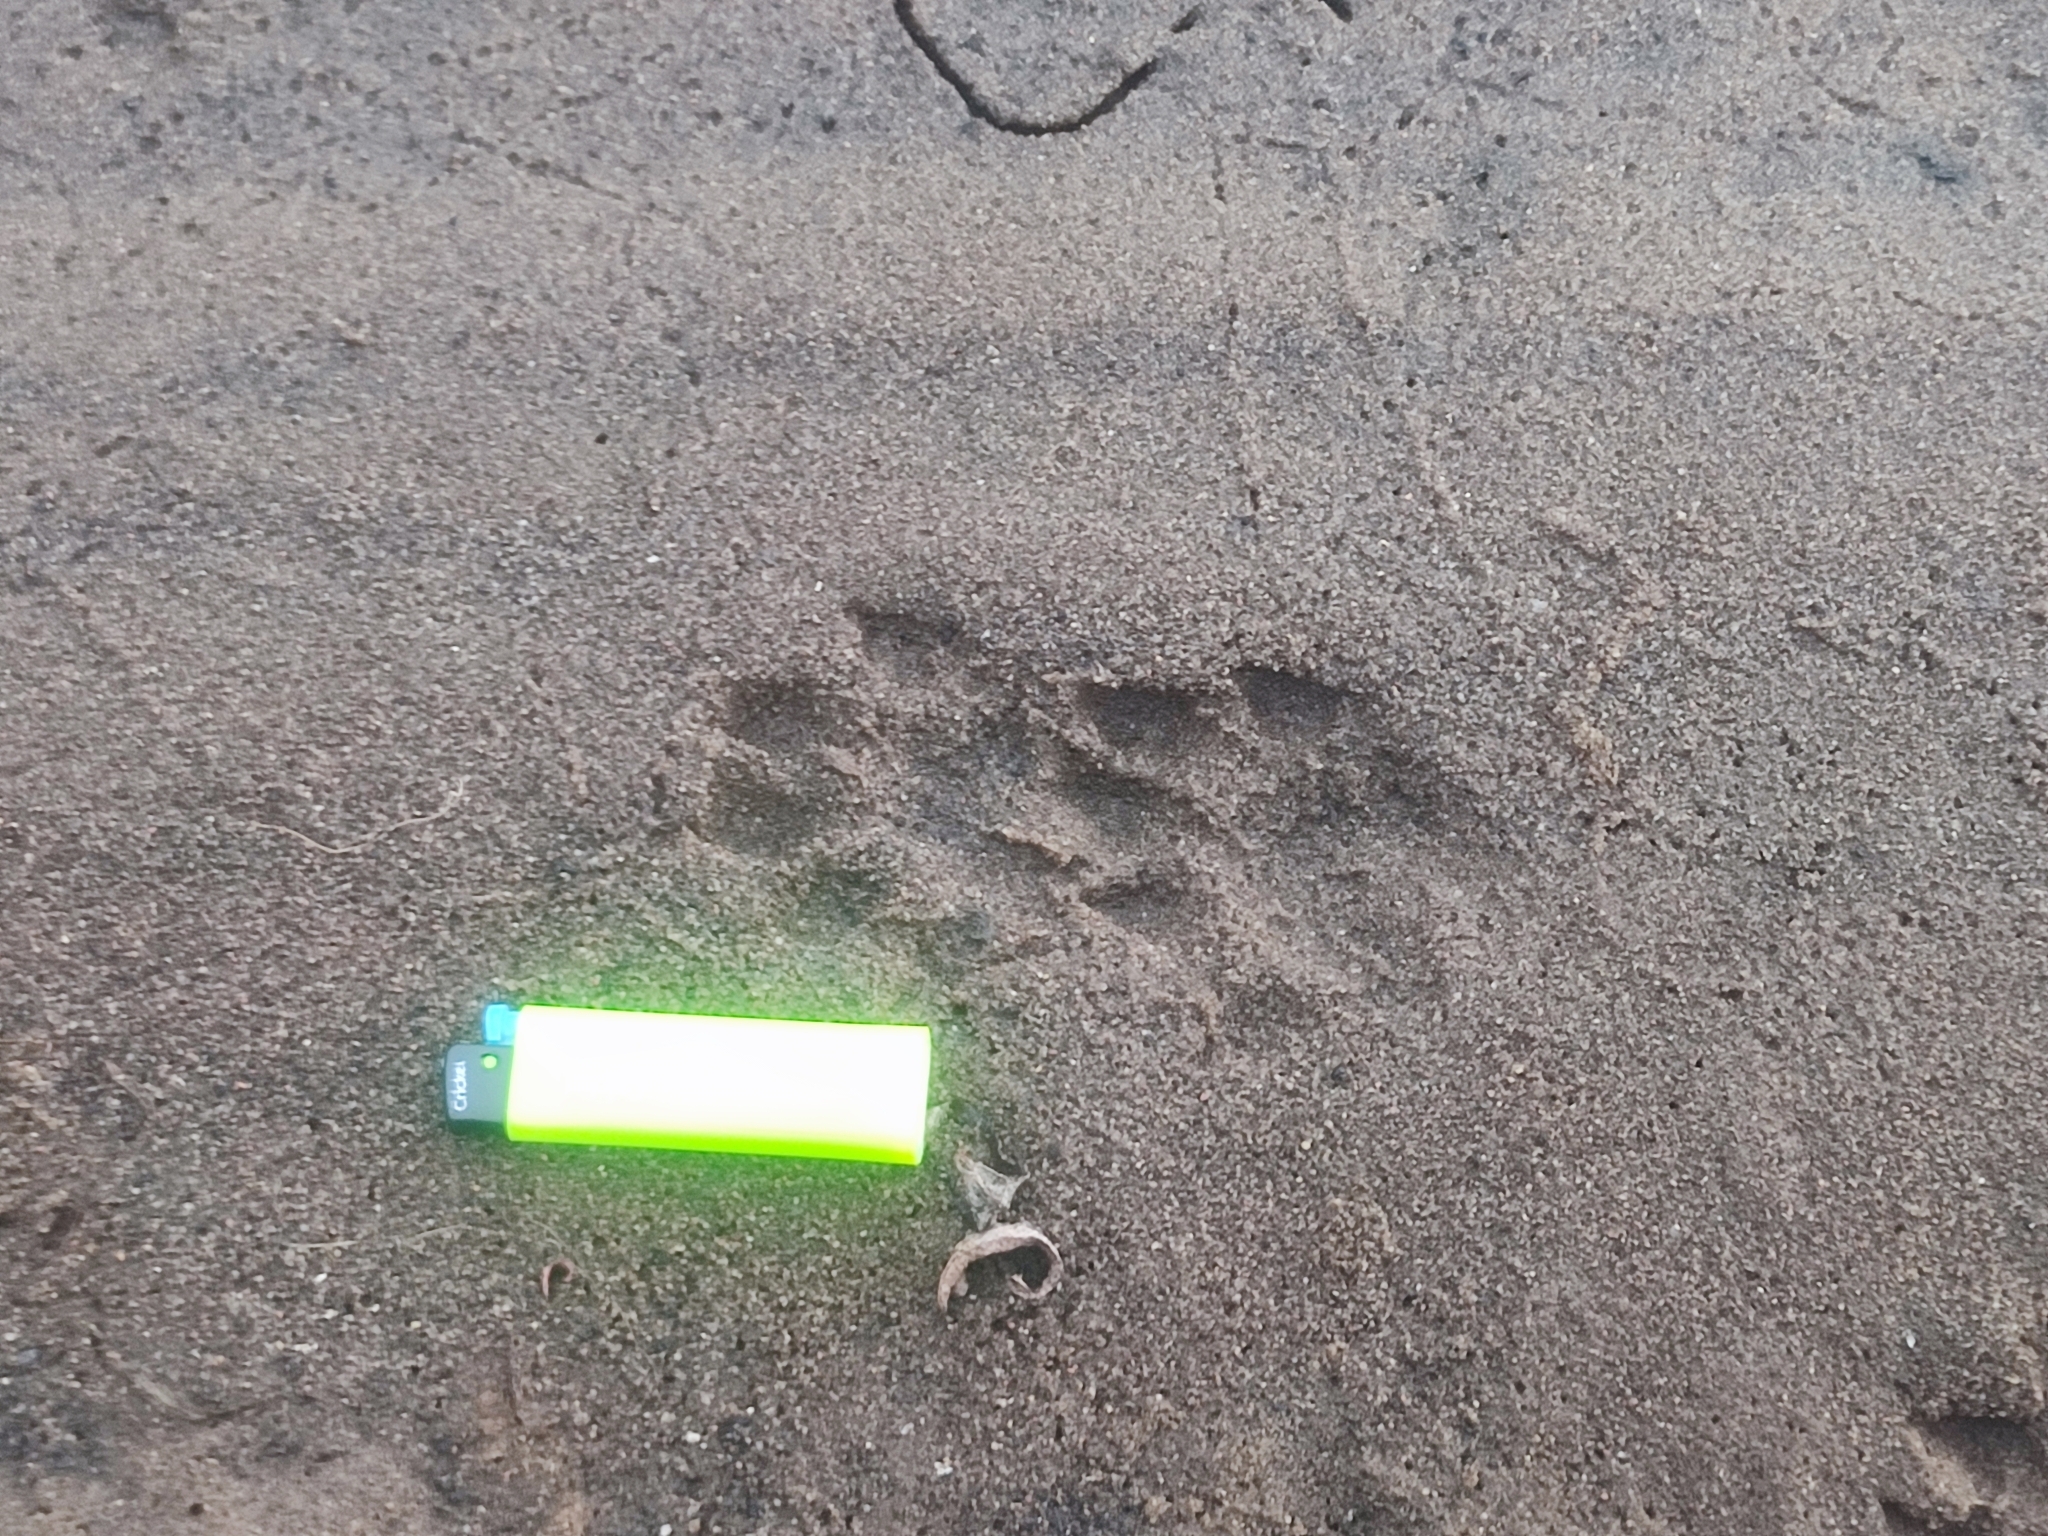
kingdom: Animalia
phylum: Chordata
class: Mammalia
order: Carnivora
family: Mustelidae
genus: Lutra
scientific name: Lutra lutra
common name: European otter
